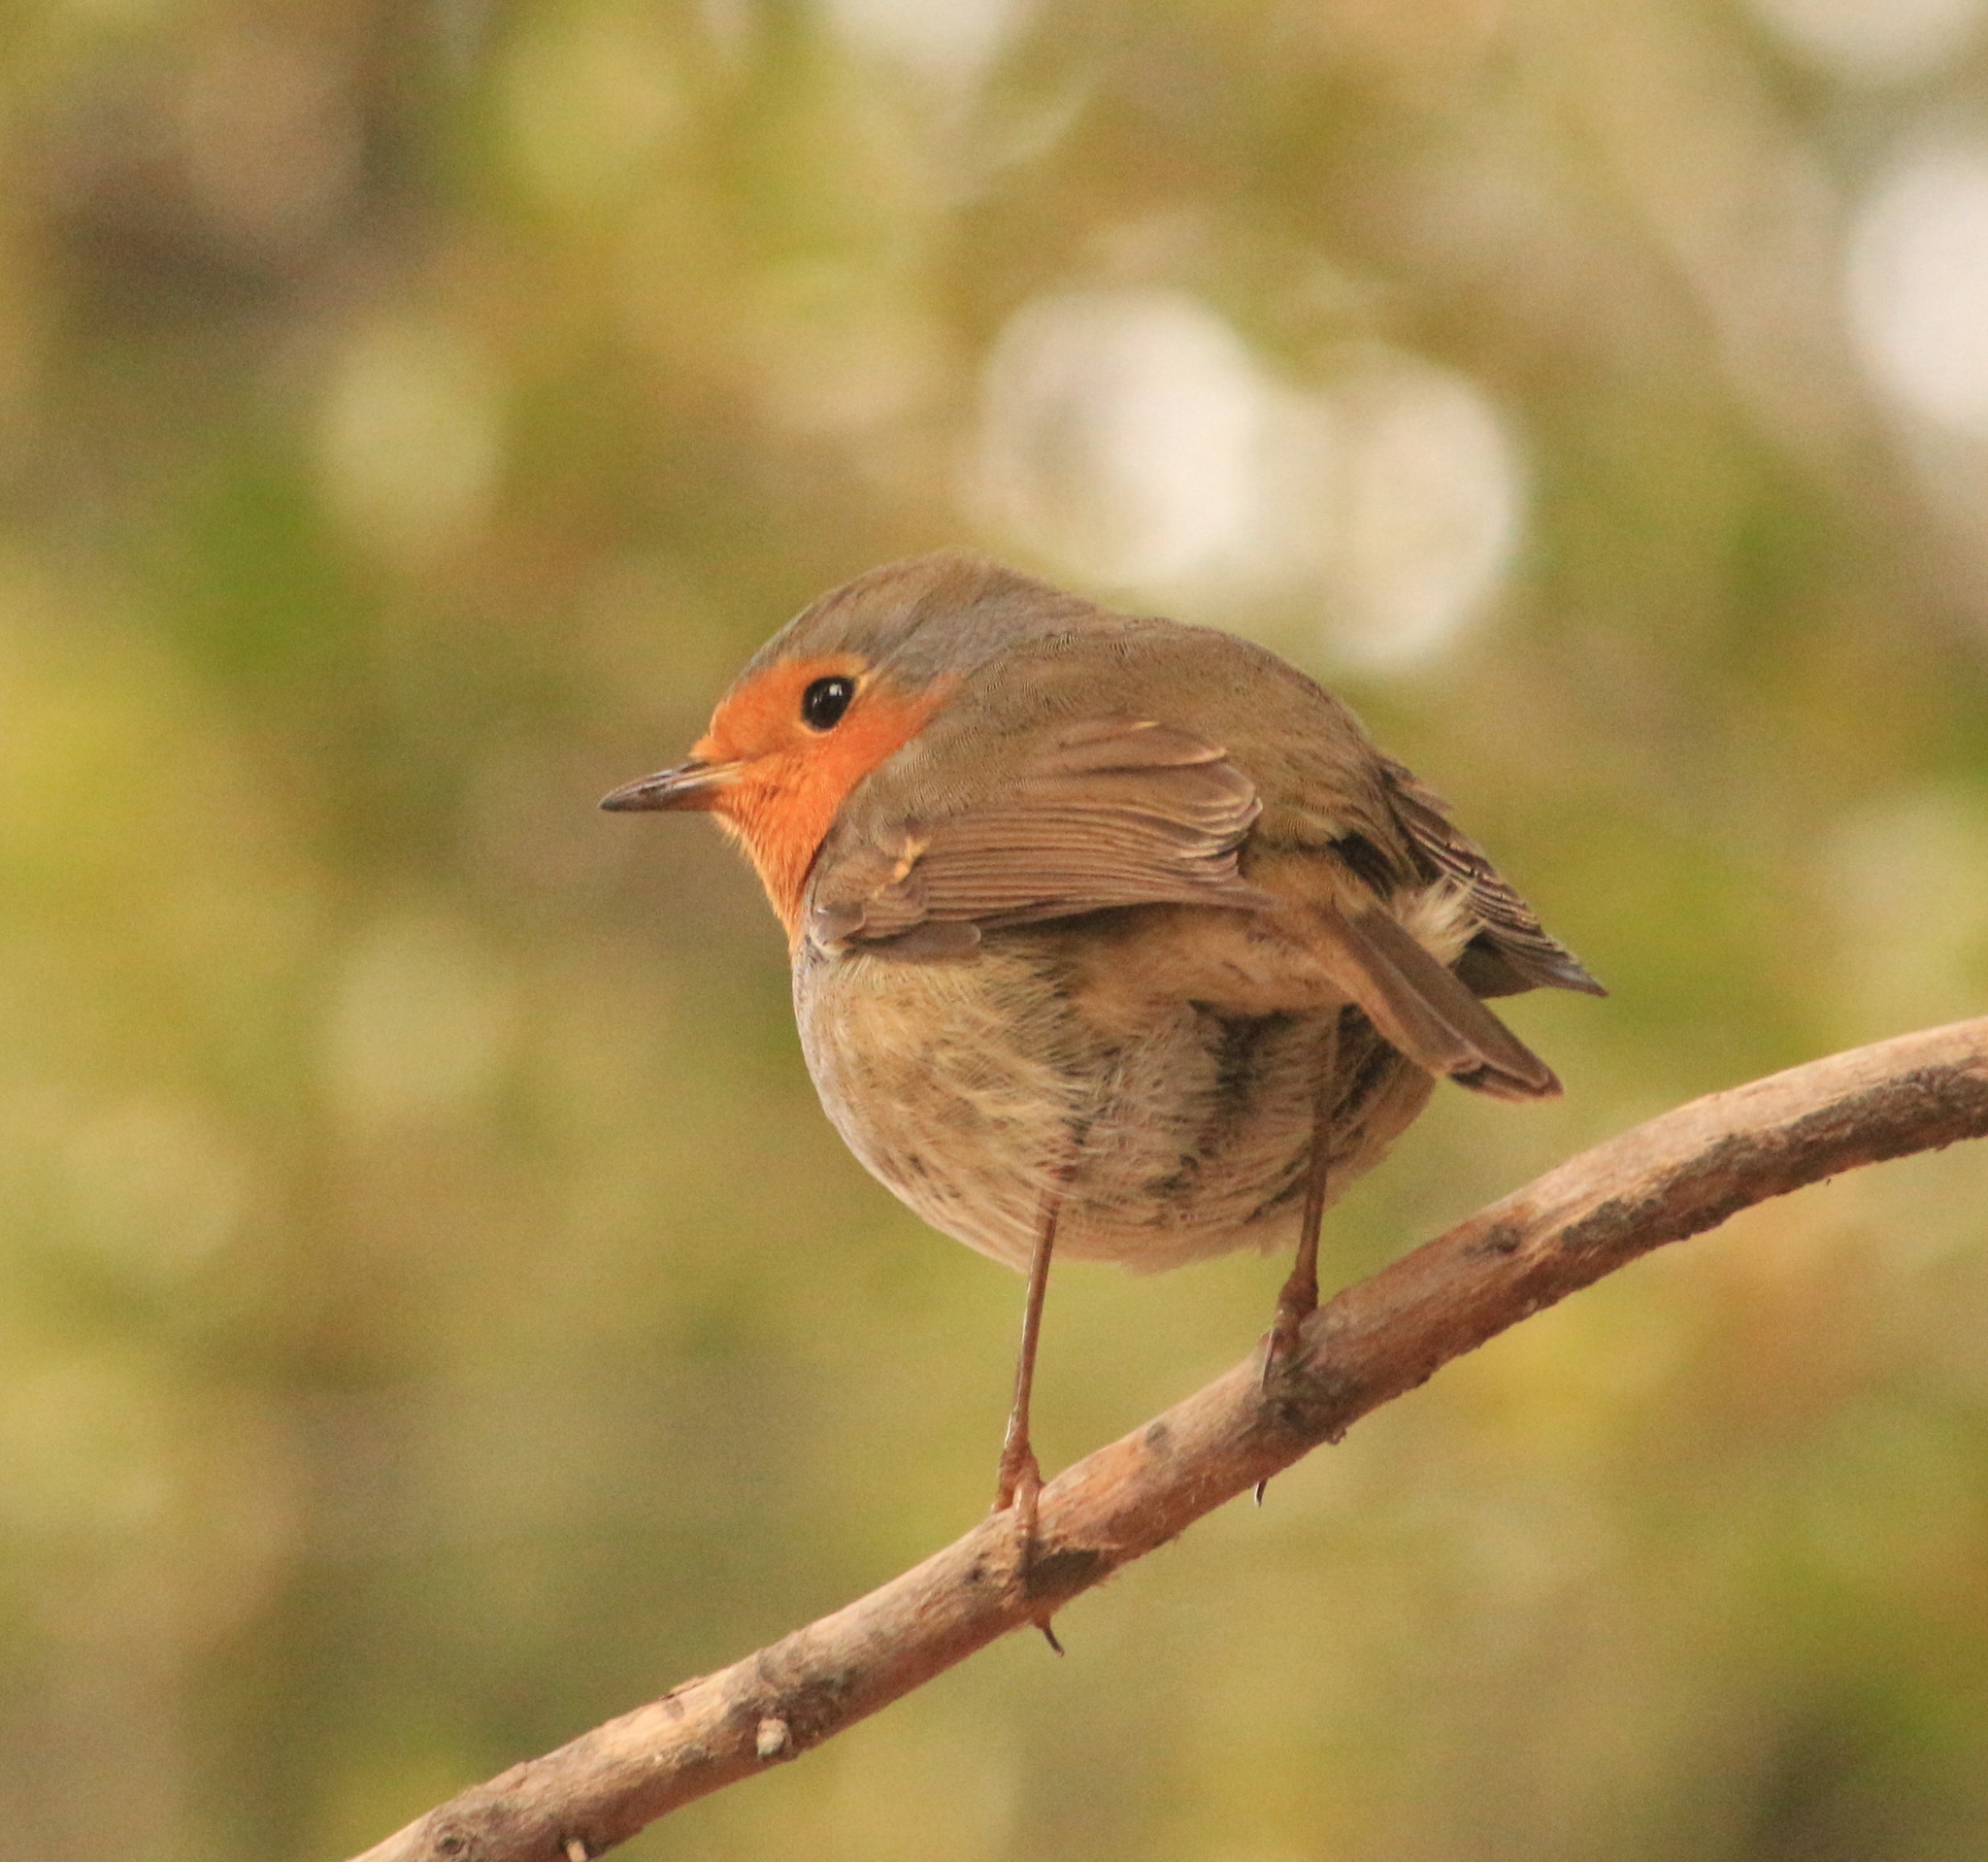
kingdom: Animalia
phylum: Chordata
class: Aves
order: Passeriformes
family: Muscicapidae
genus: Erithacus
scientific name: Erithacus rubecula
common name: European robin
